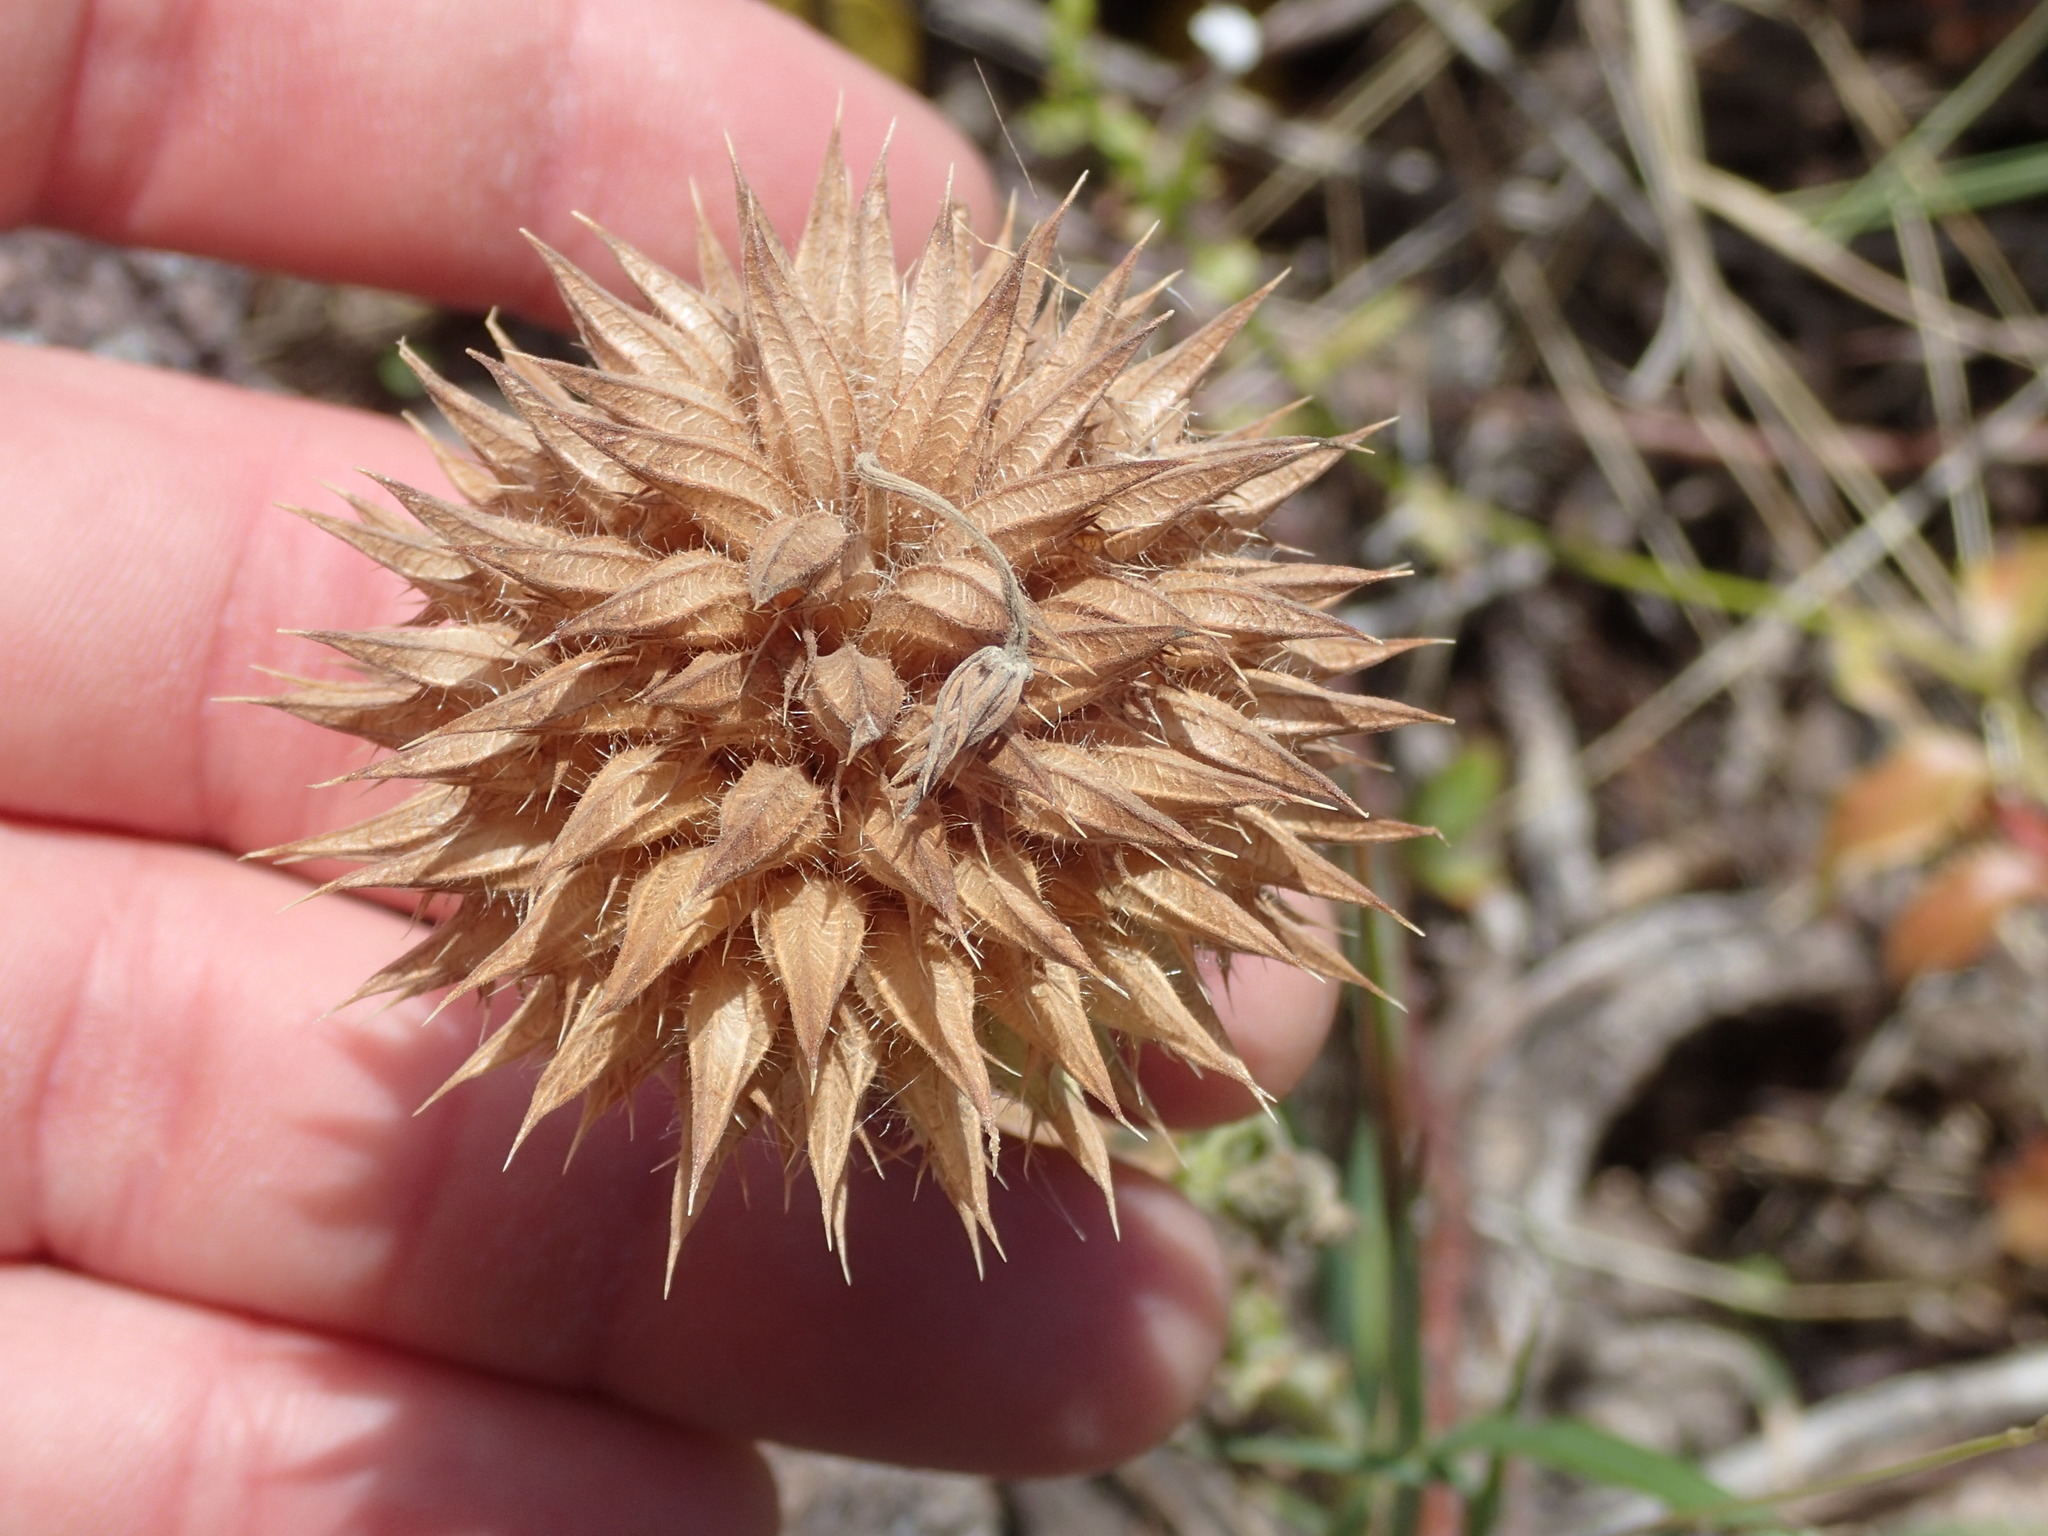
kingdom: Plantae
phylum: Tracheophyta
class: Magnoliopsida
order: Lamiales
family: Lamiaceae
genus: Leonotis
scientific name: Leonotis nepetifolia
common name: Christmas candlestick
